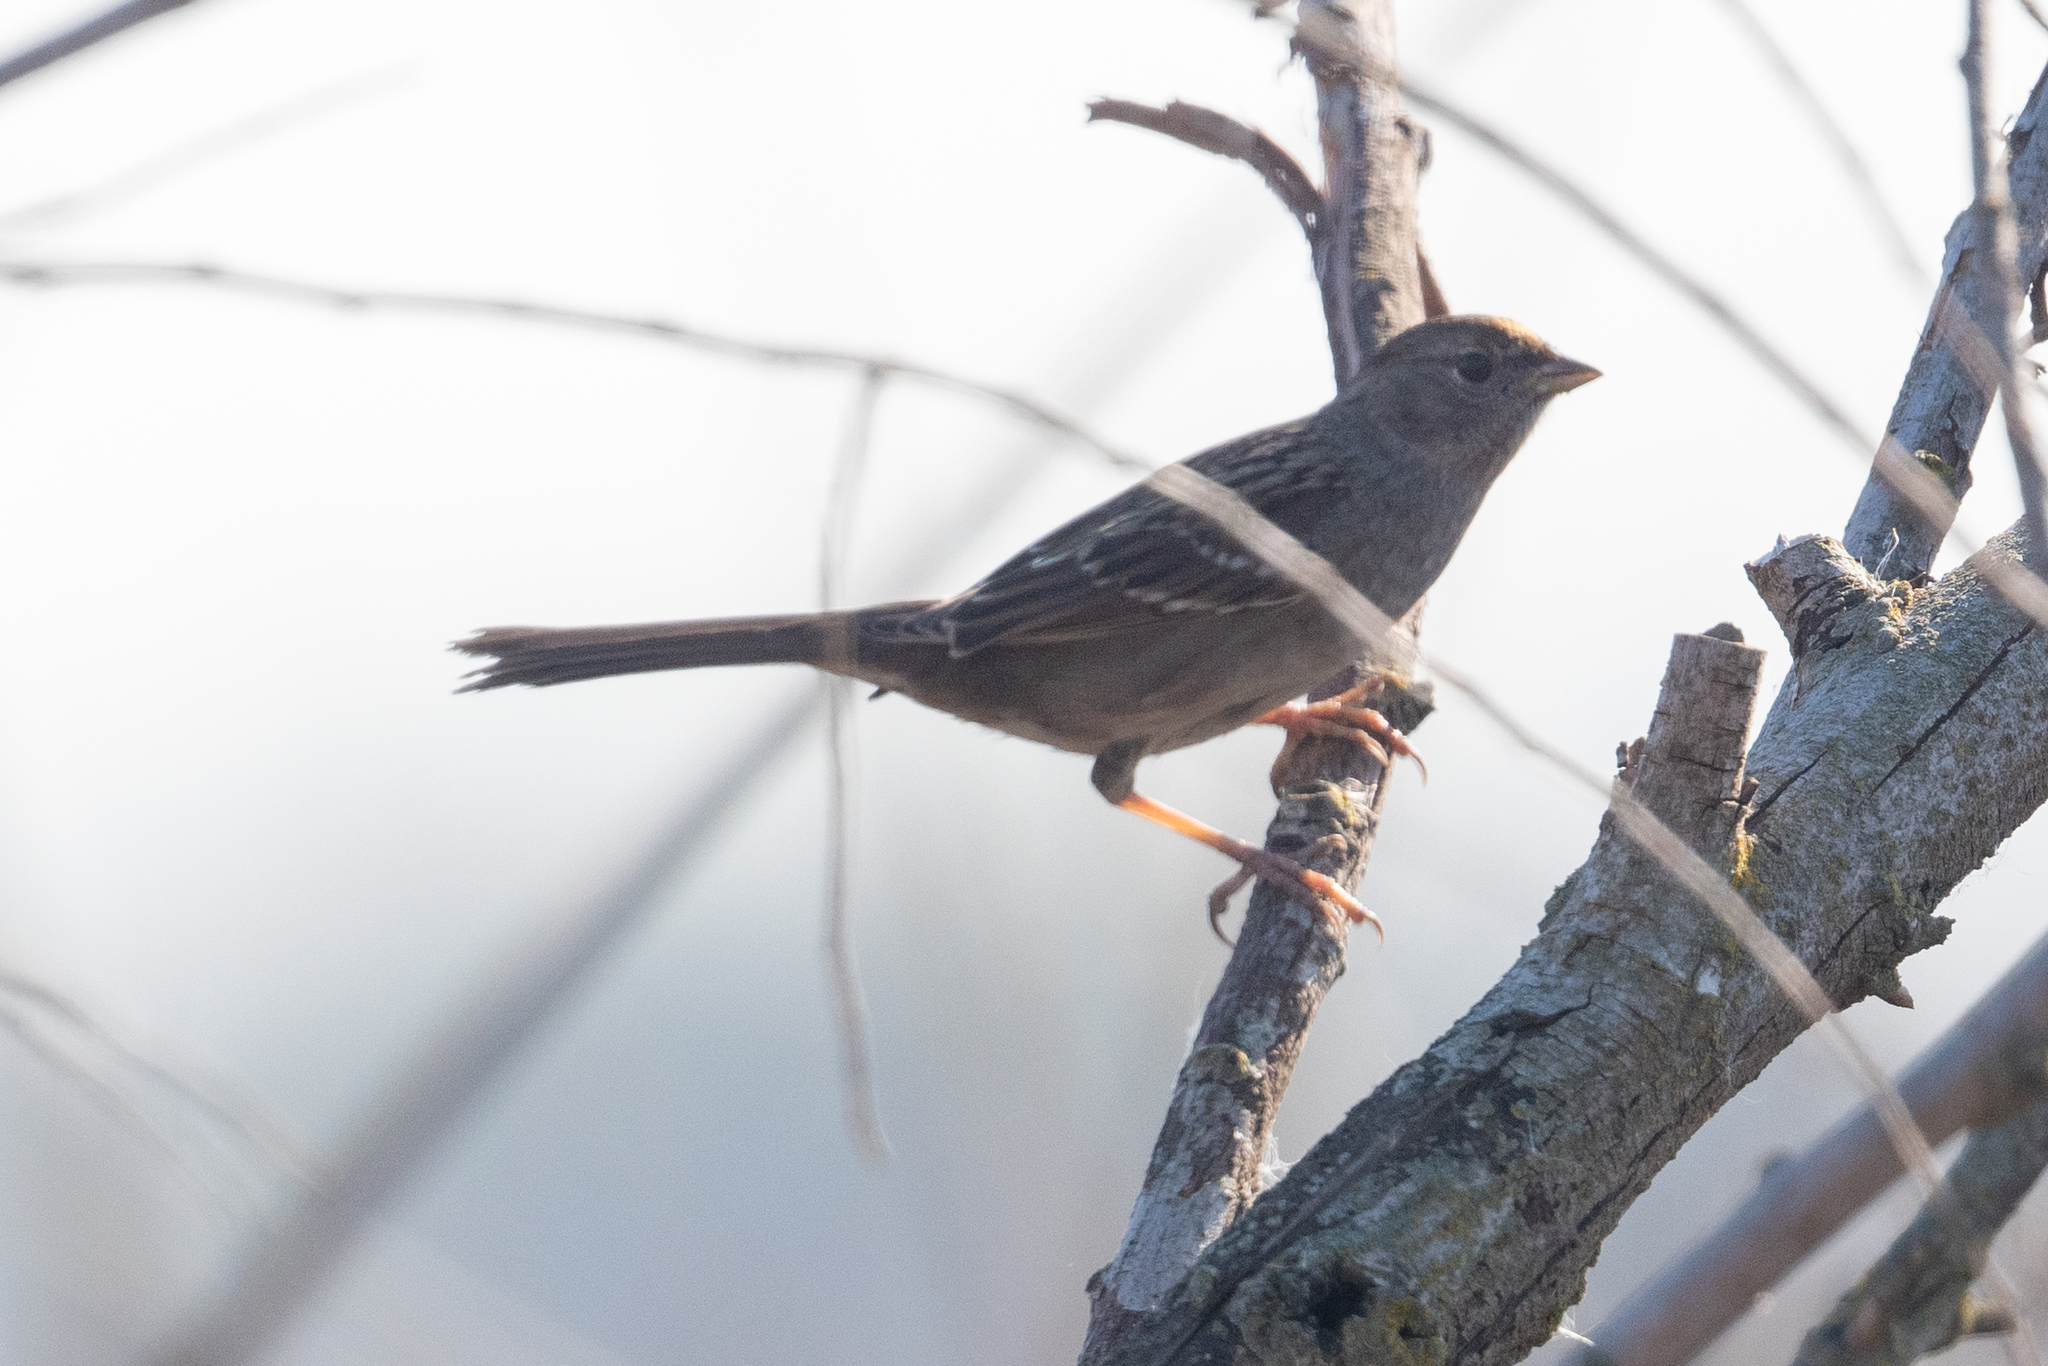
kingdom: Animalia
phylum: Chordata
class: Aves
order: Passeriformes
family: Passerellidae
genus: Zonotrichia
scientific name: Zonotrichia atricapilla
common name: Golden-crowned sparrow
